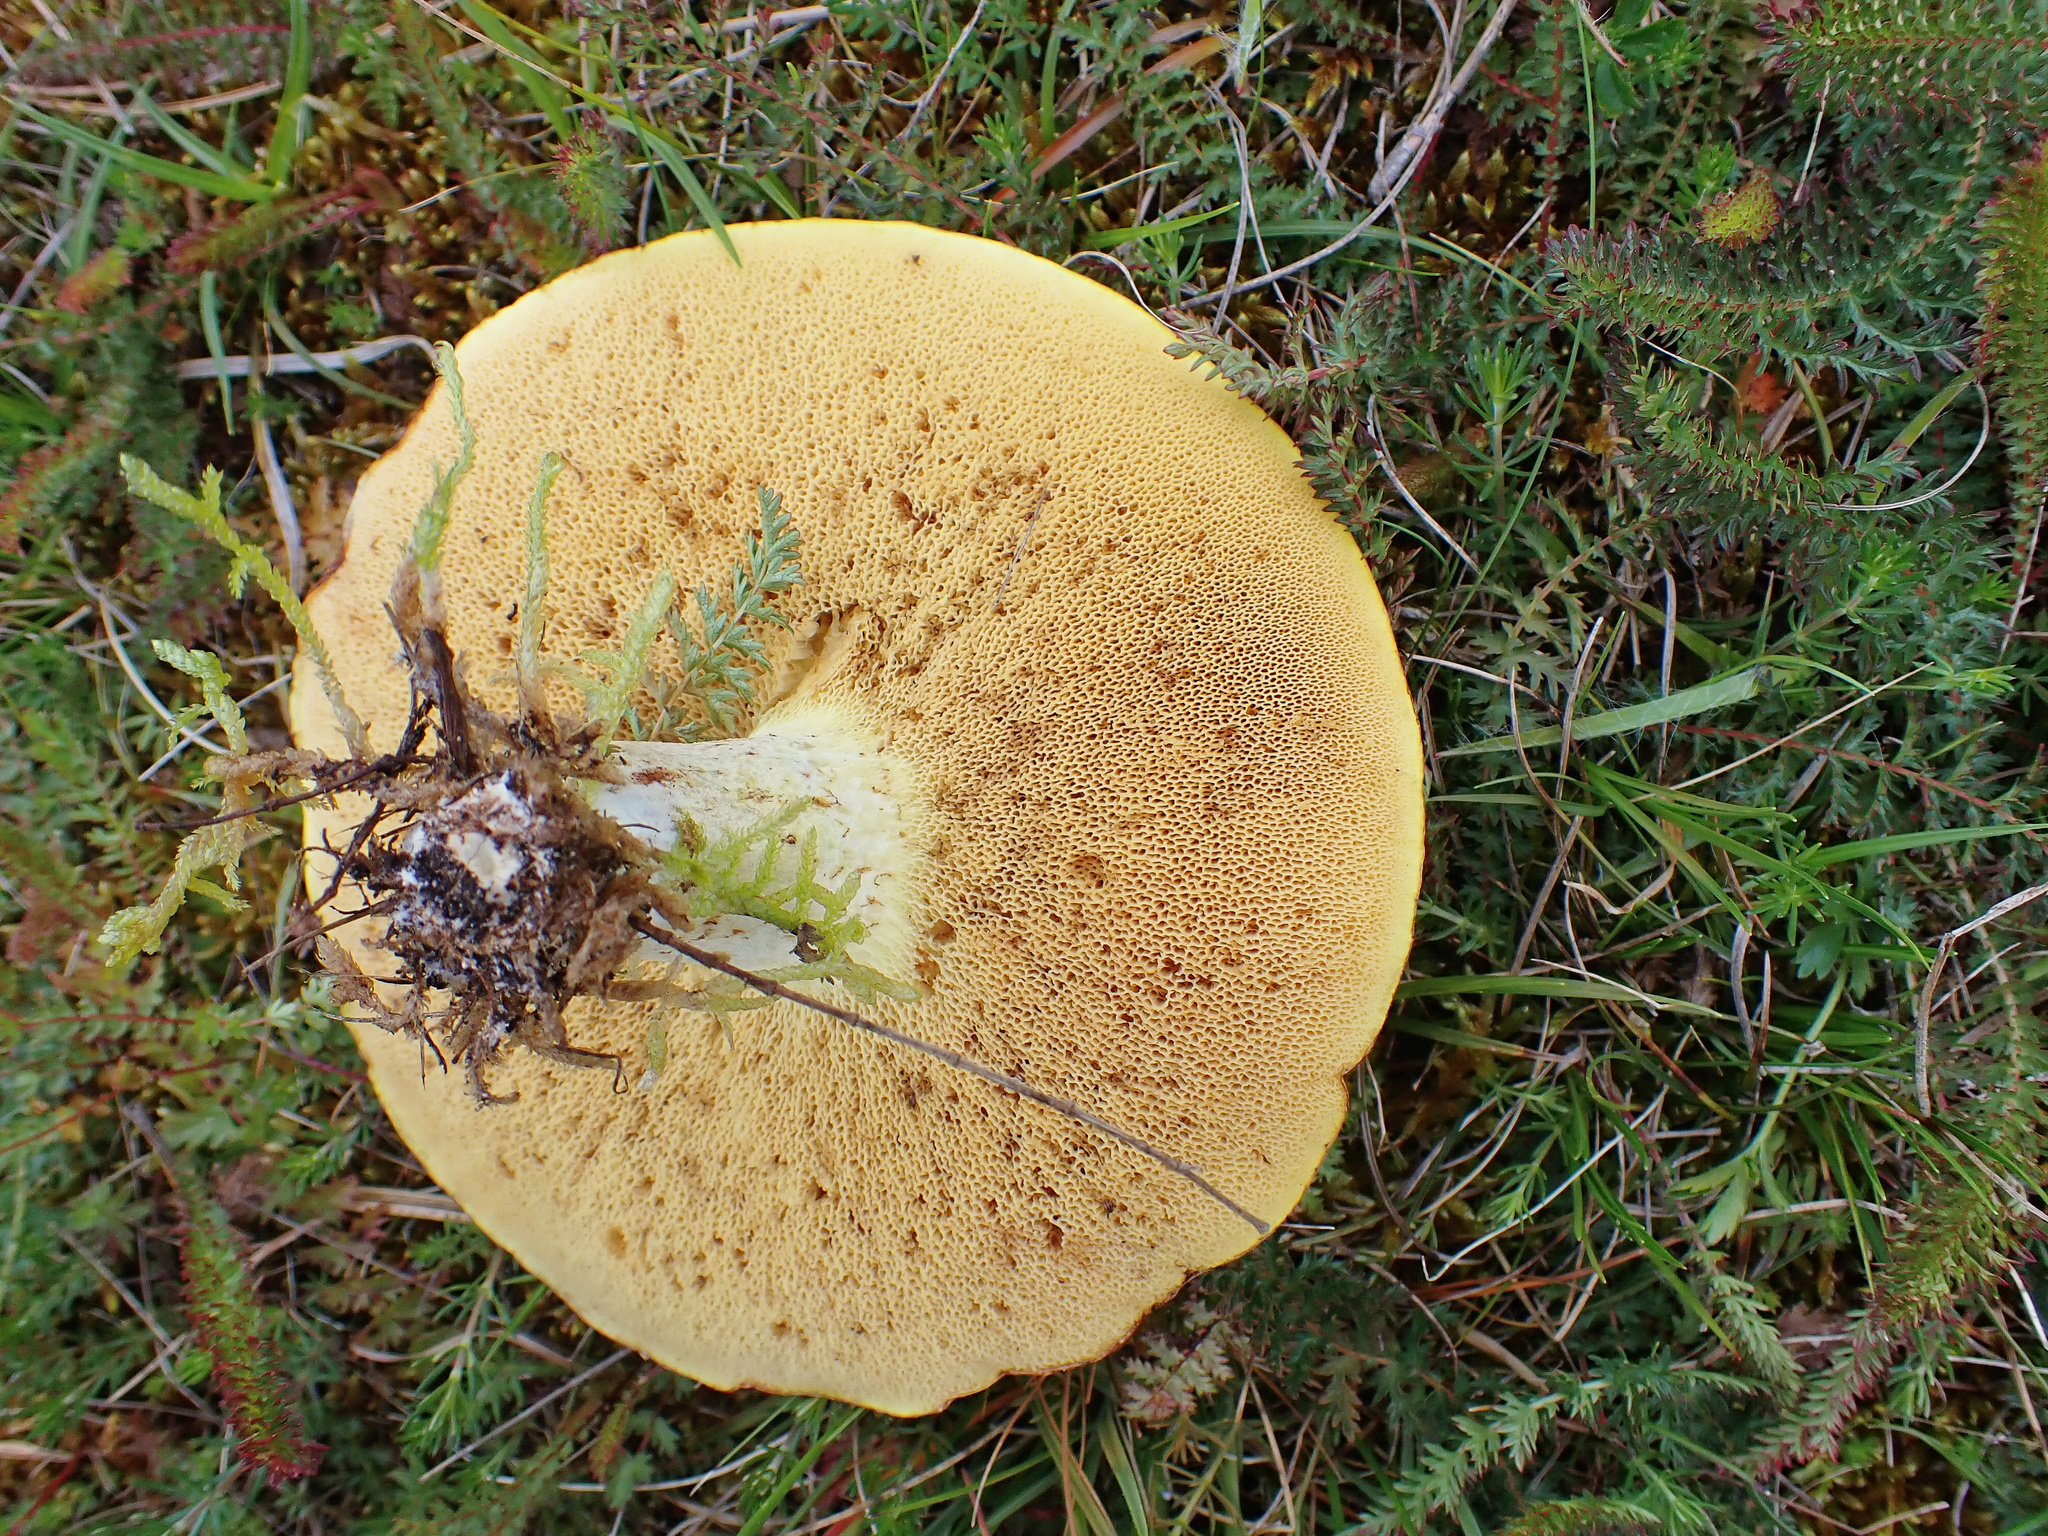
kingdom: Fungi
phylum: Basidiomycota
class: Agaricomycetes
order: Boletales
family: Suillaceae
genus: Suillus
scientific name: Suillus bellinii
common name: Champagne bolete
